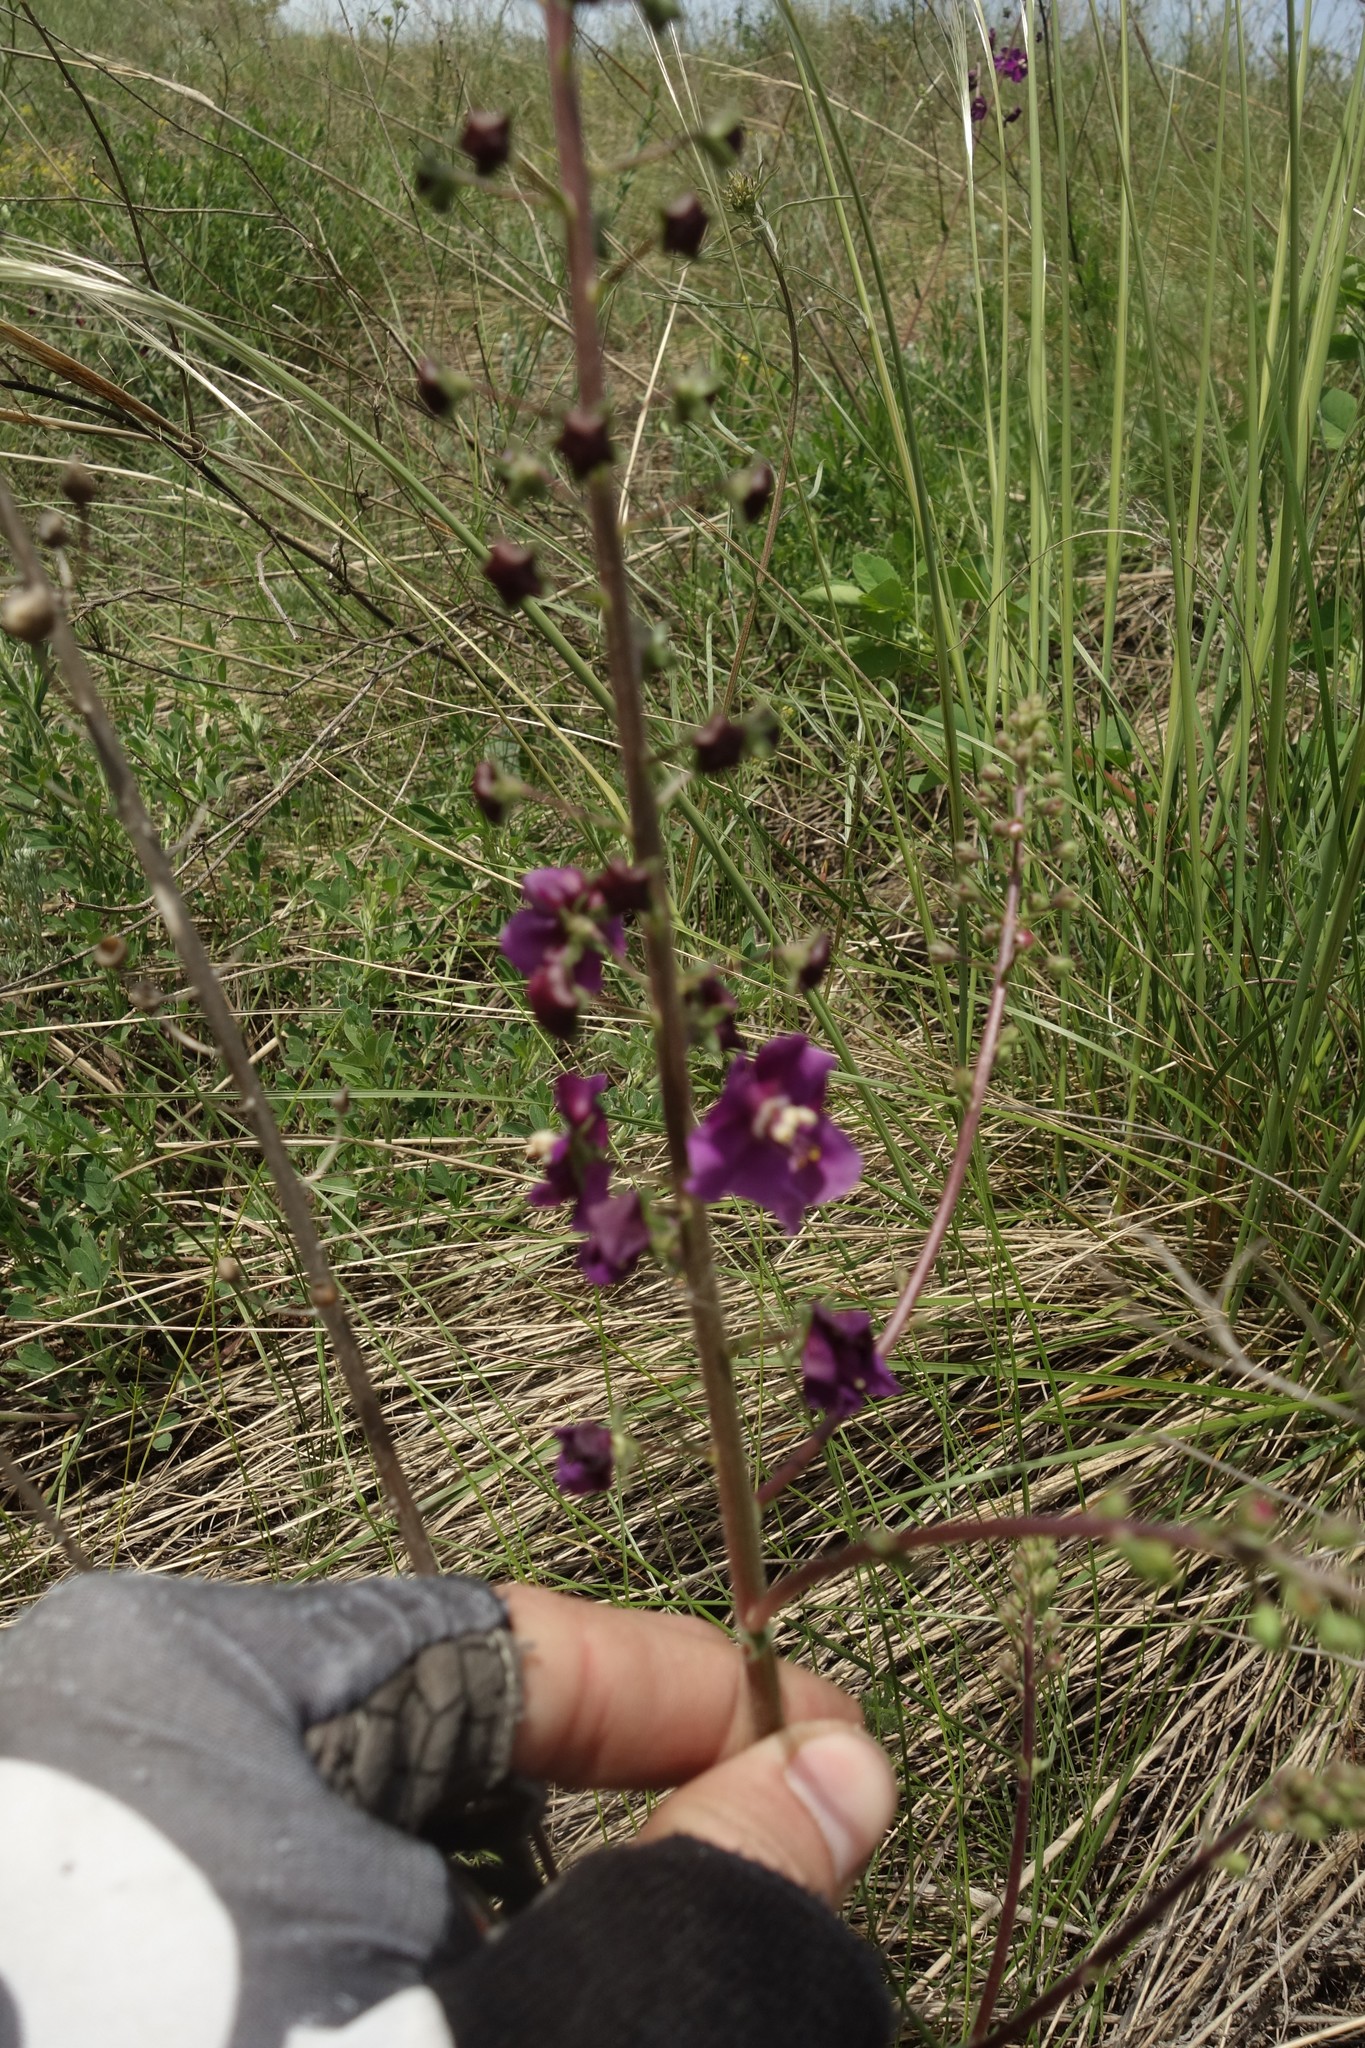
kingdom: Plantae
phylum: Tracheophyta
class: Magnoliopsida
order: Lamiales
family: Scrophulariaceae
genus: Verbascum
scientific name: Verbascum phoeniceum
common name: Purple mullein
